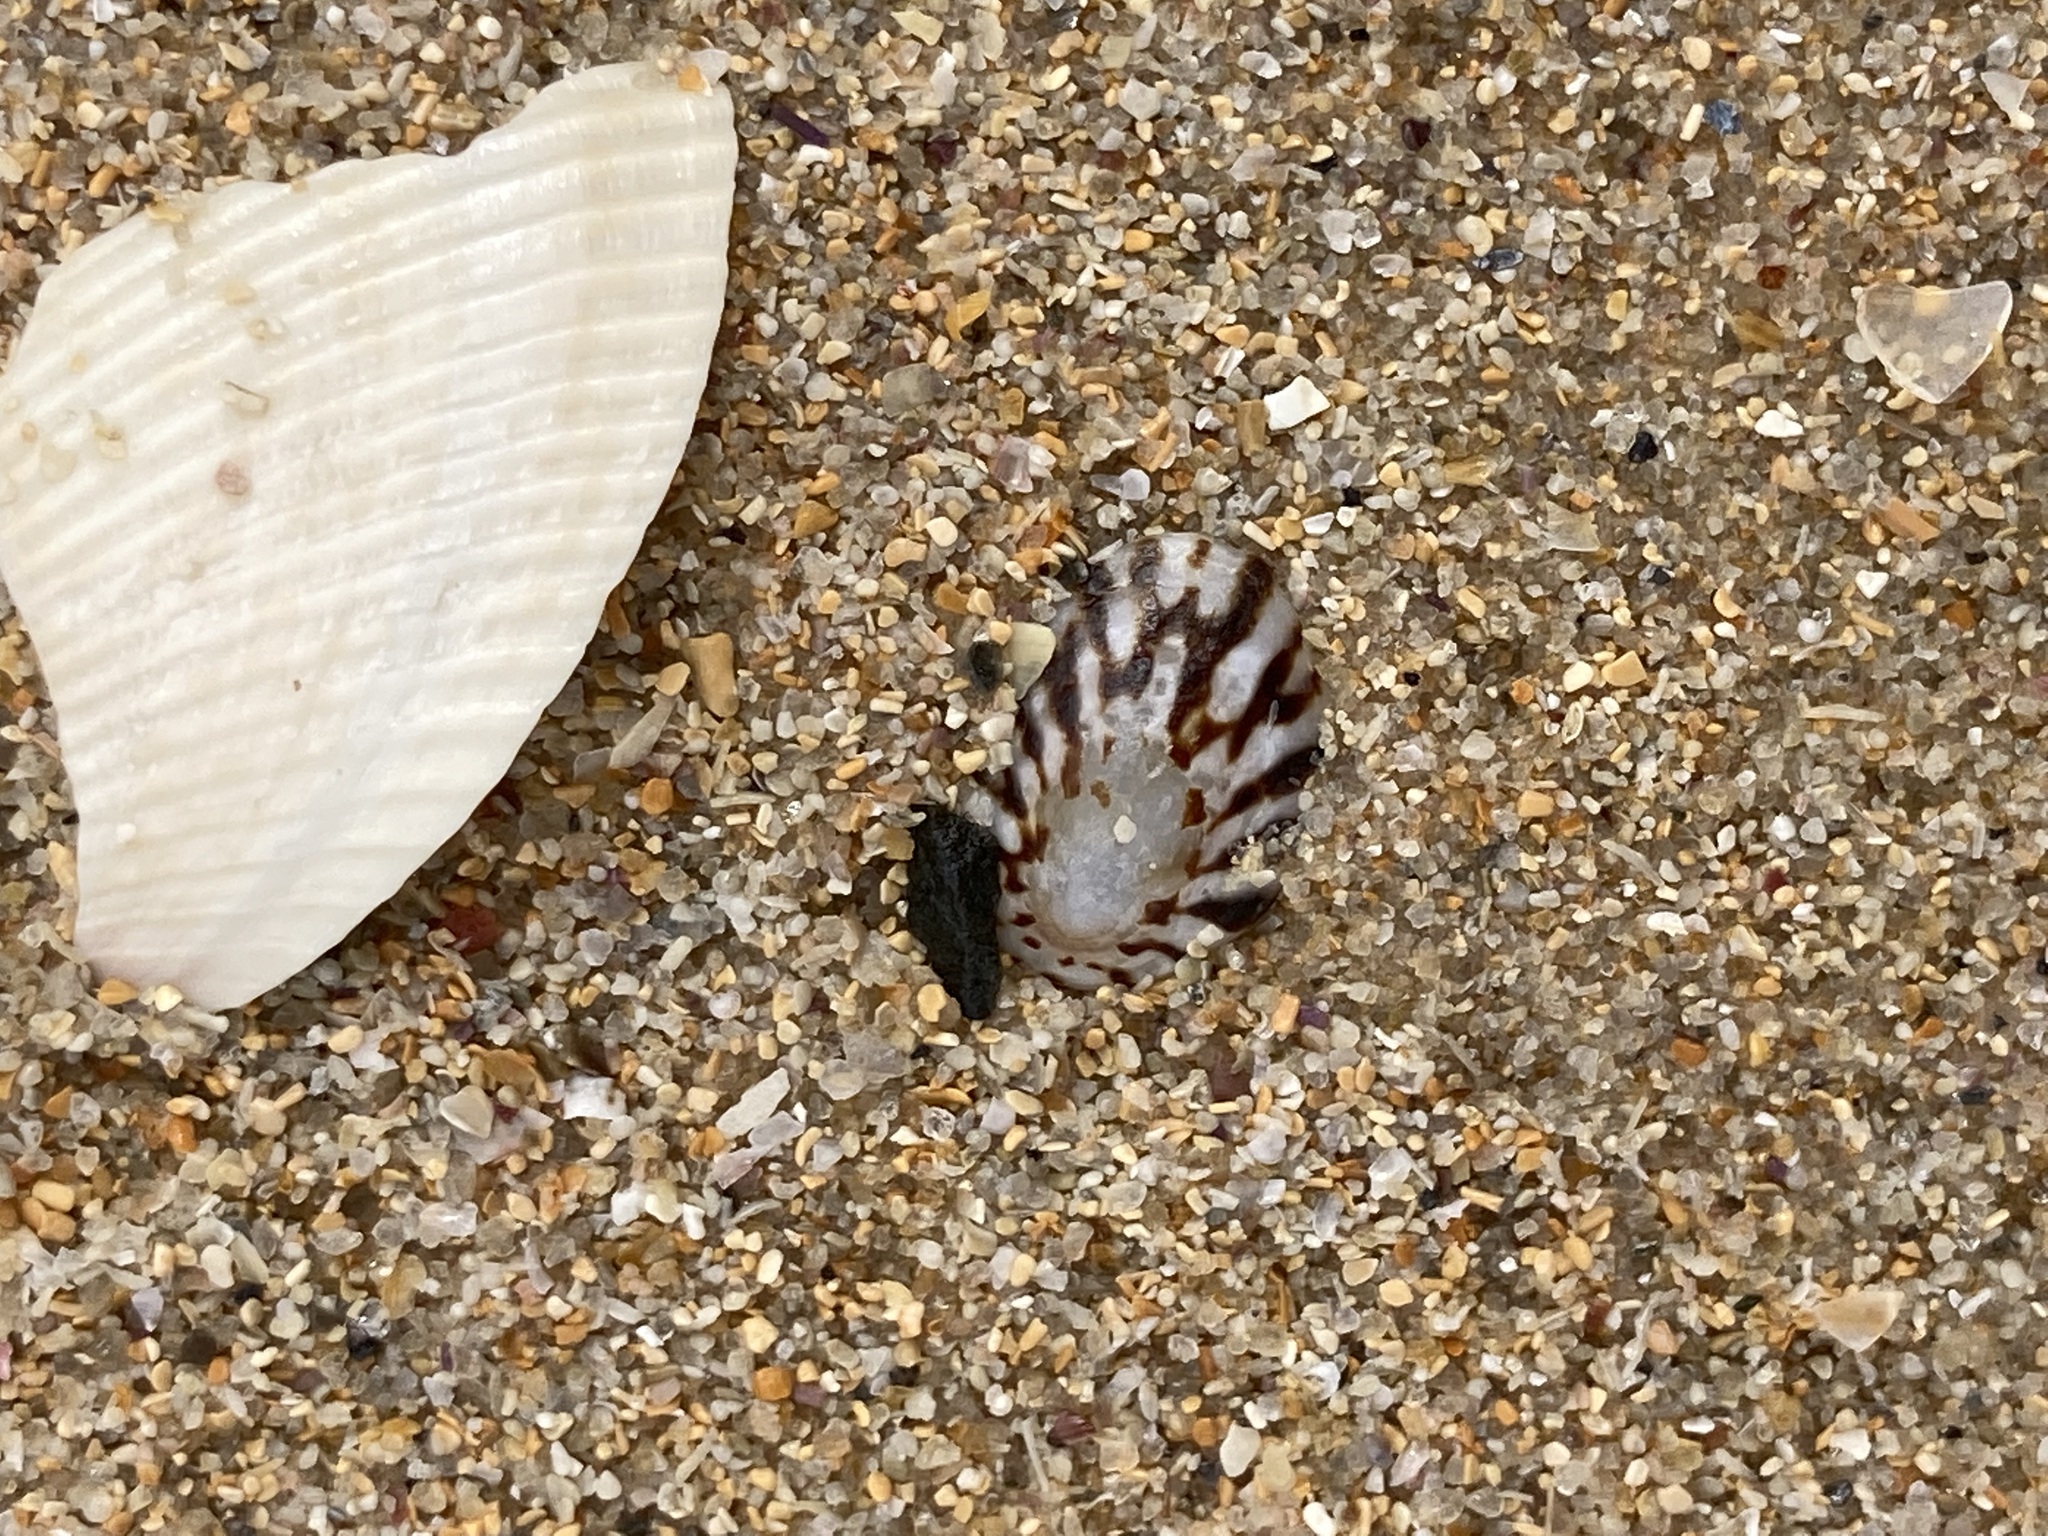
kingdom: Animalia
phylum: Mollusca
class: Gastropoda
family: Lottiidae
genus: Patelloida
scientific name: Patelloida mufria
